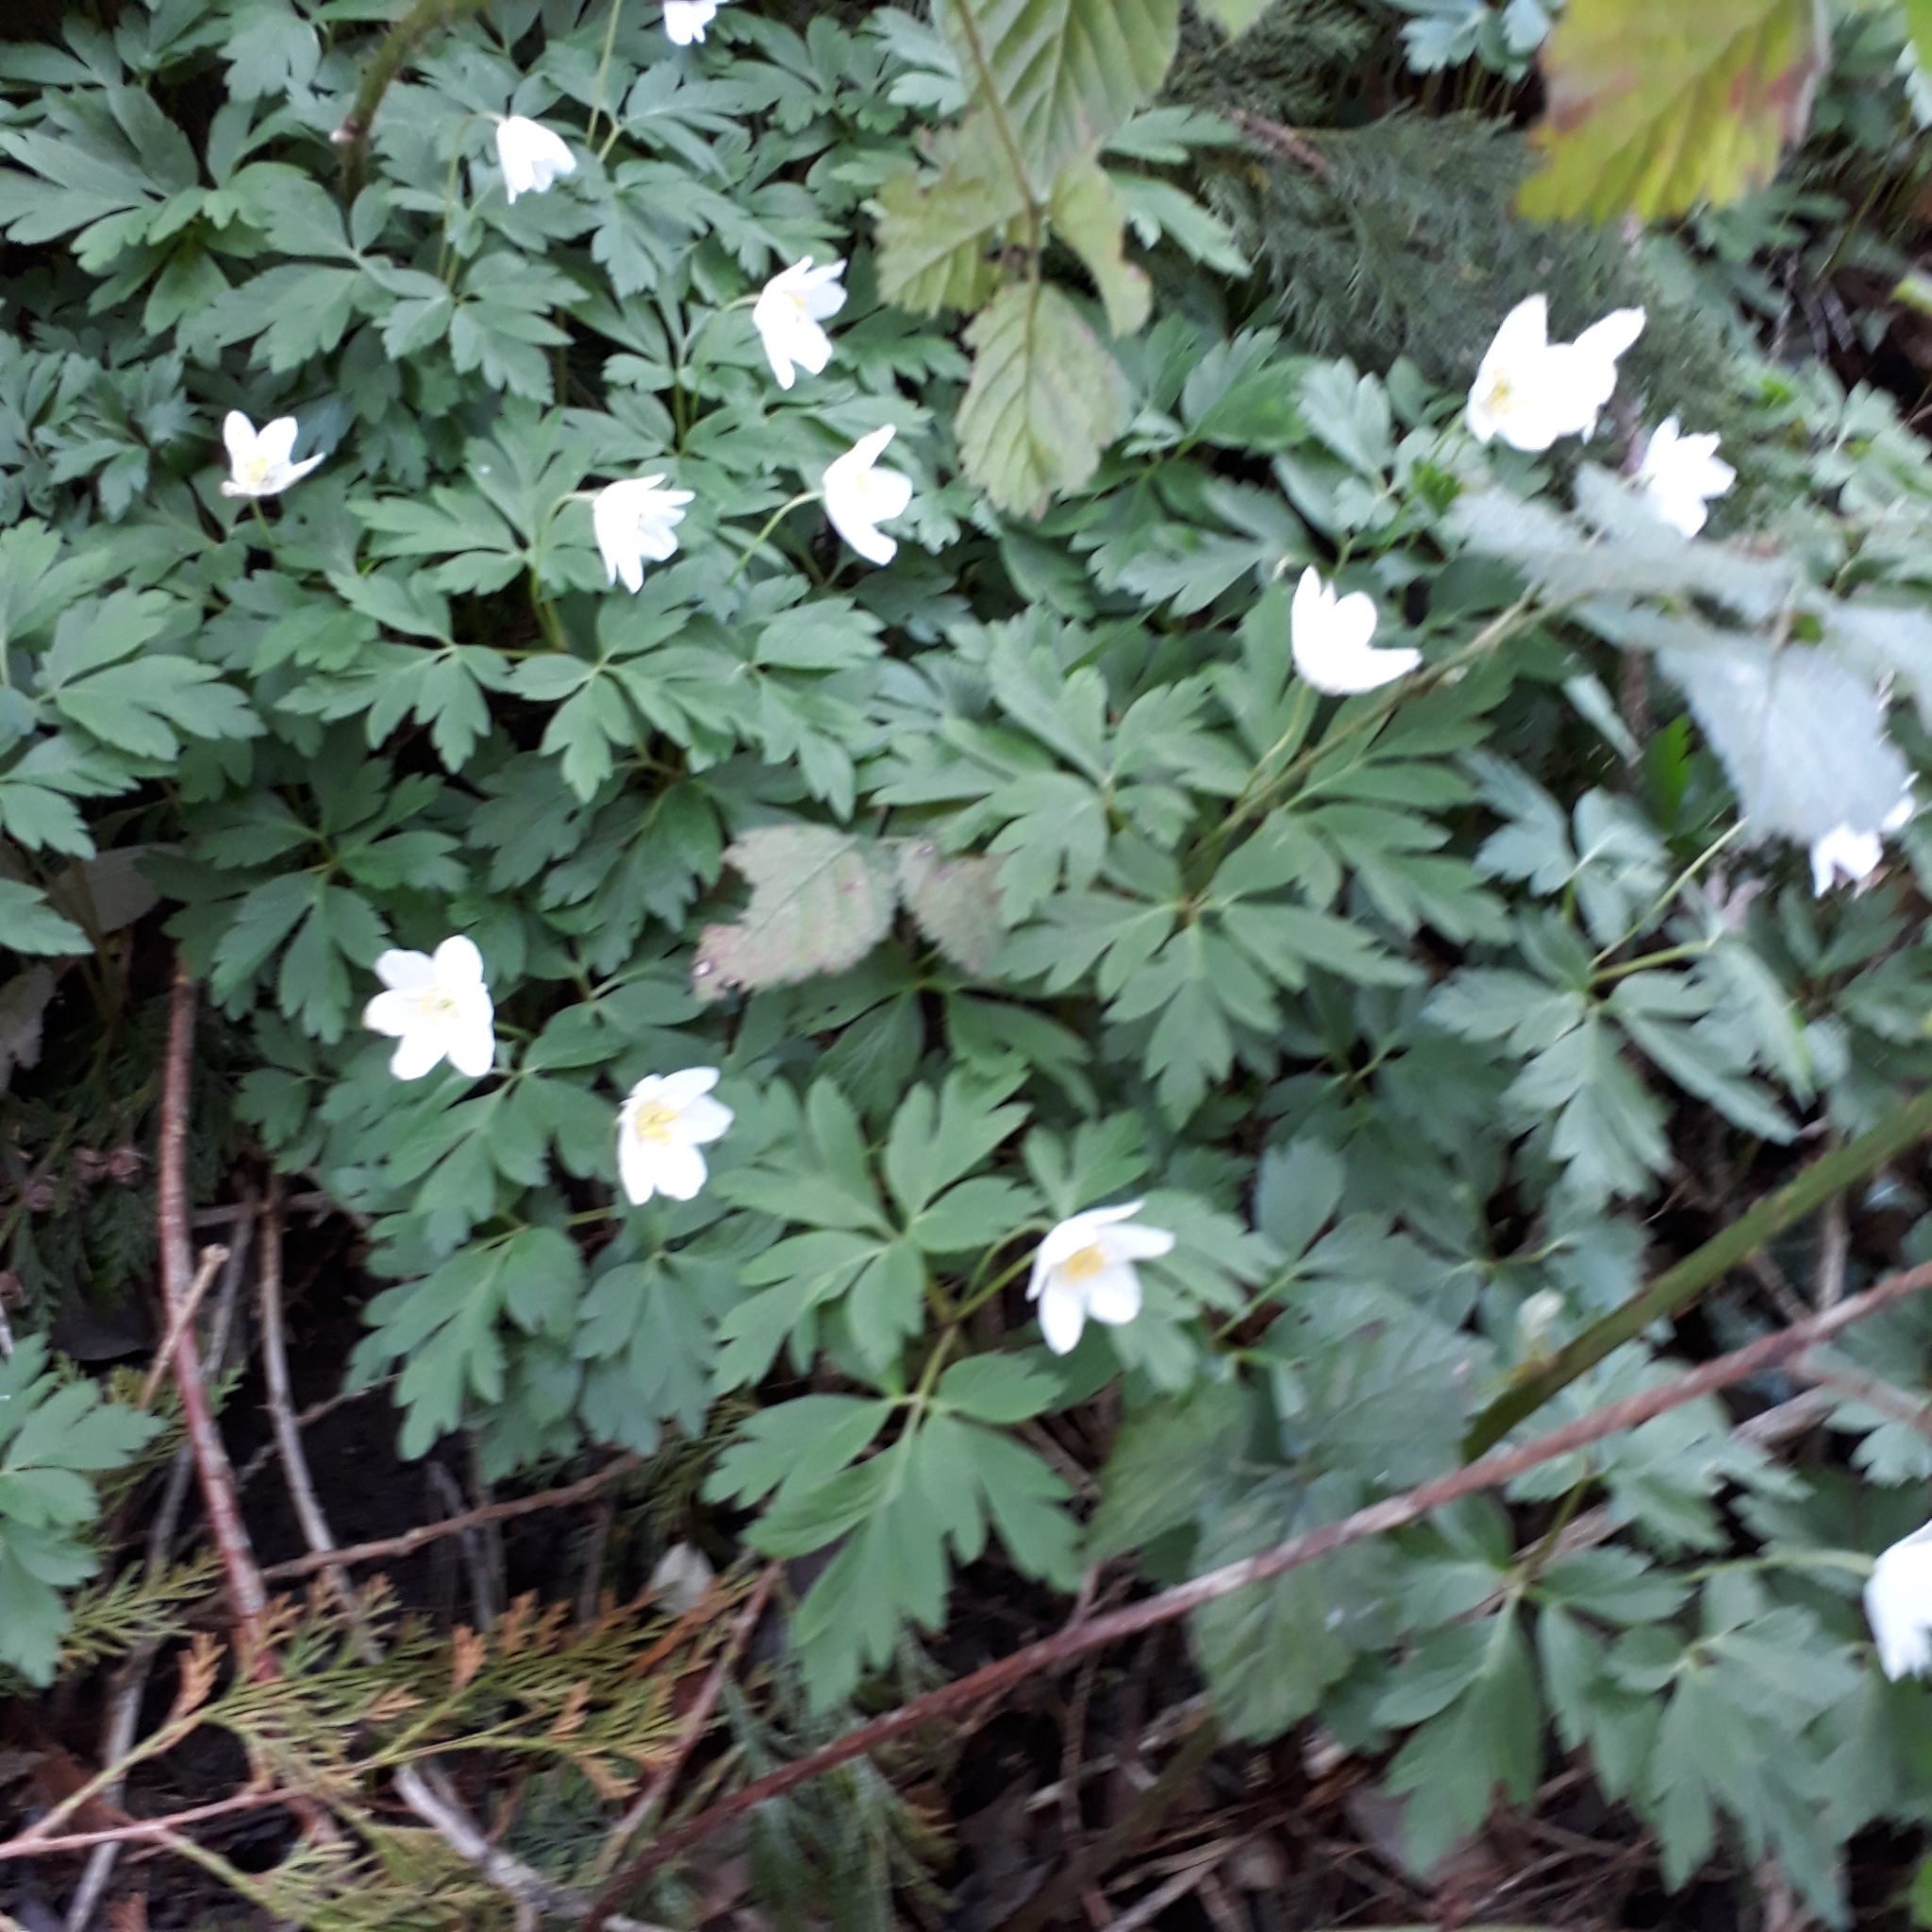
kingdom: Plantae
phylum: Tracheophyta
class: Magnoliopsida
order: Ranunculales
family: Ranunculaceae
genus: Anemone
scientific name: Anemone nemorosa
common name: Wood anemone
